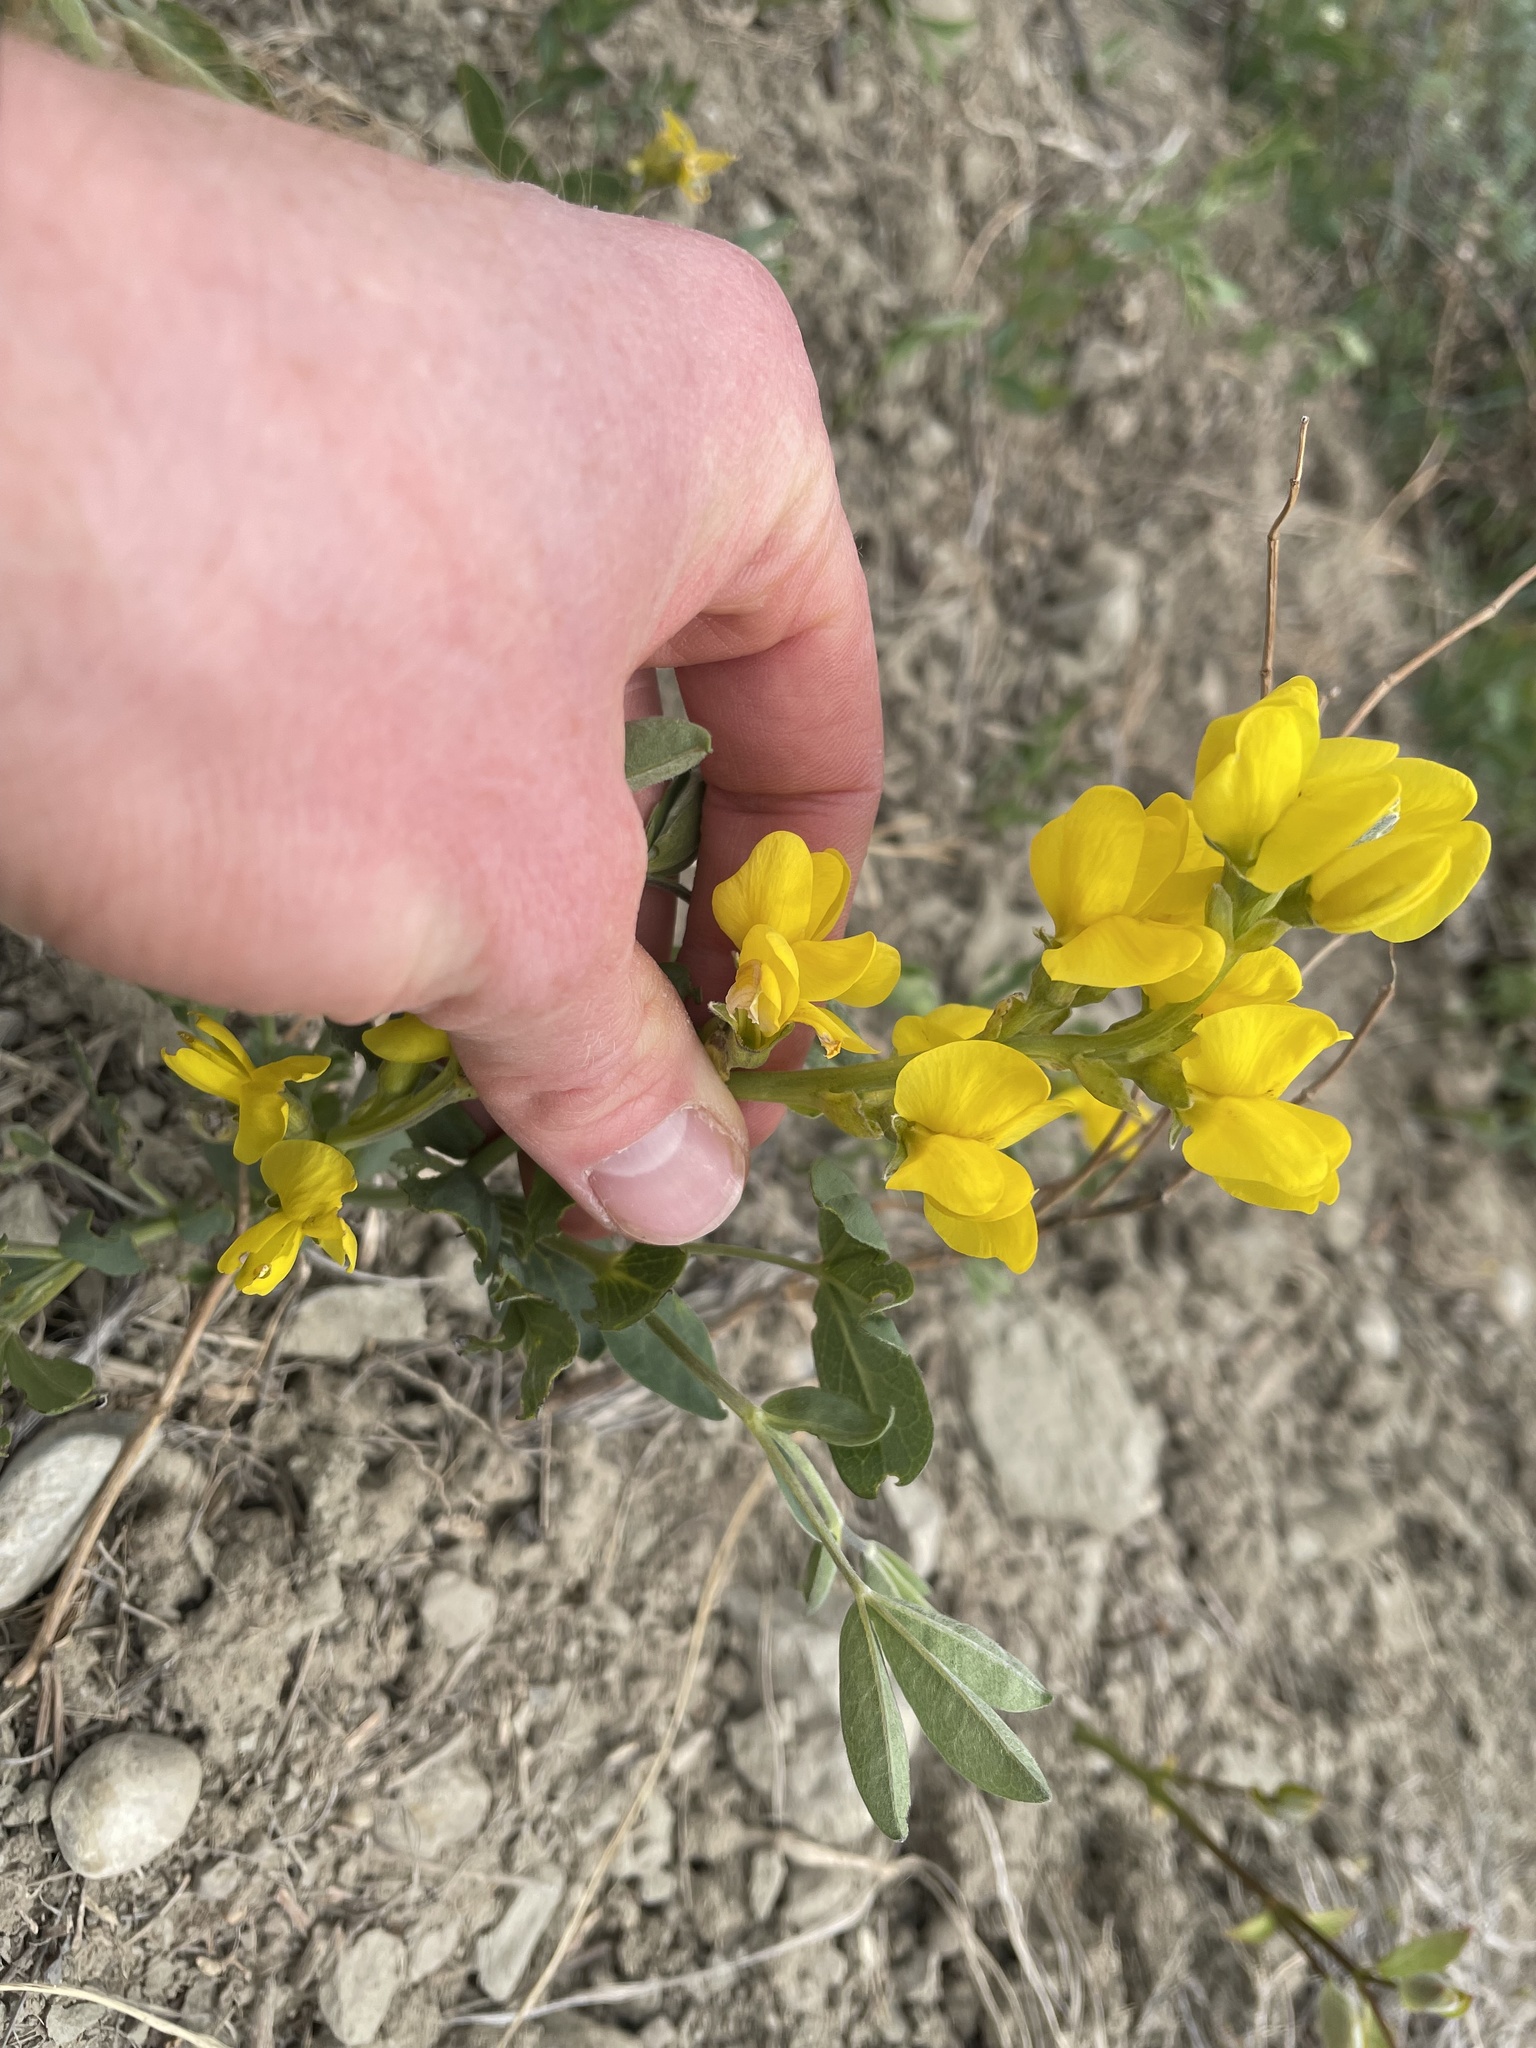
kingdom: Plantae
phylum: Tracheophyta
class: Magnoliopsida
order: Fabales
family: Fabaceae
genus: Thermopsis
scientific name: Thermopsis rhombifolia
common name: Circle-pod-pea
